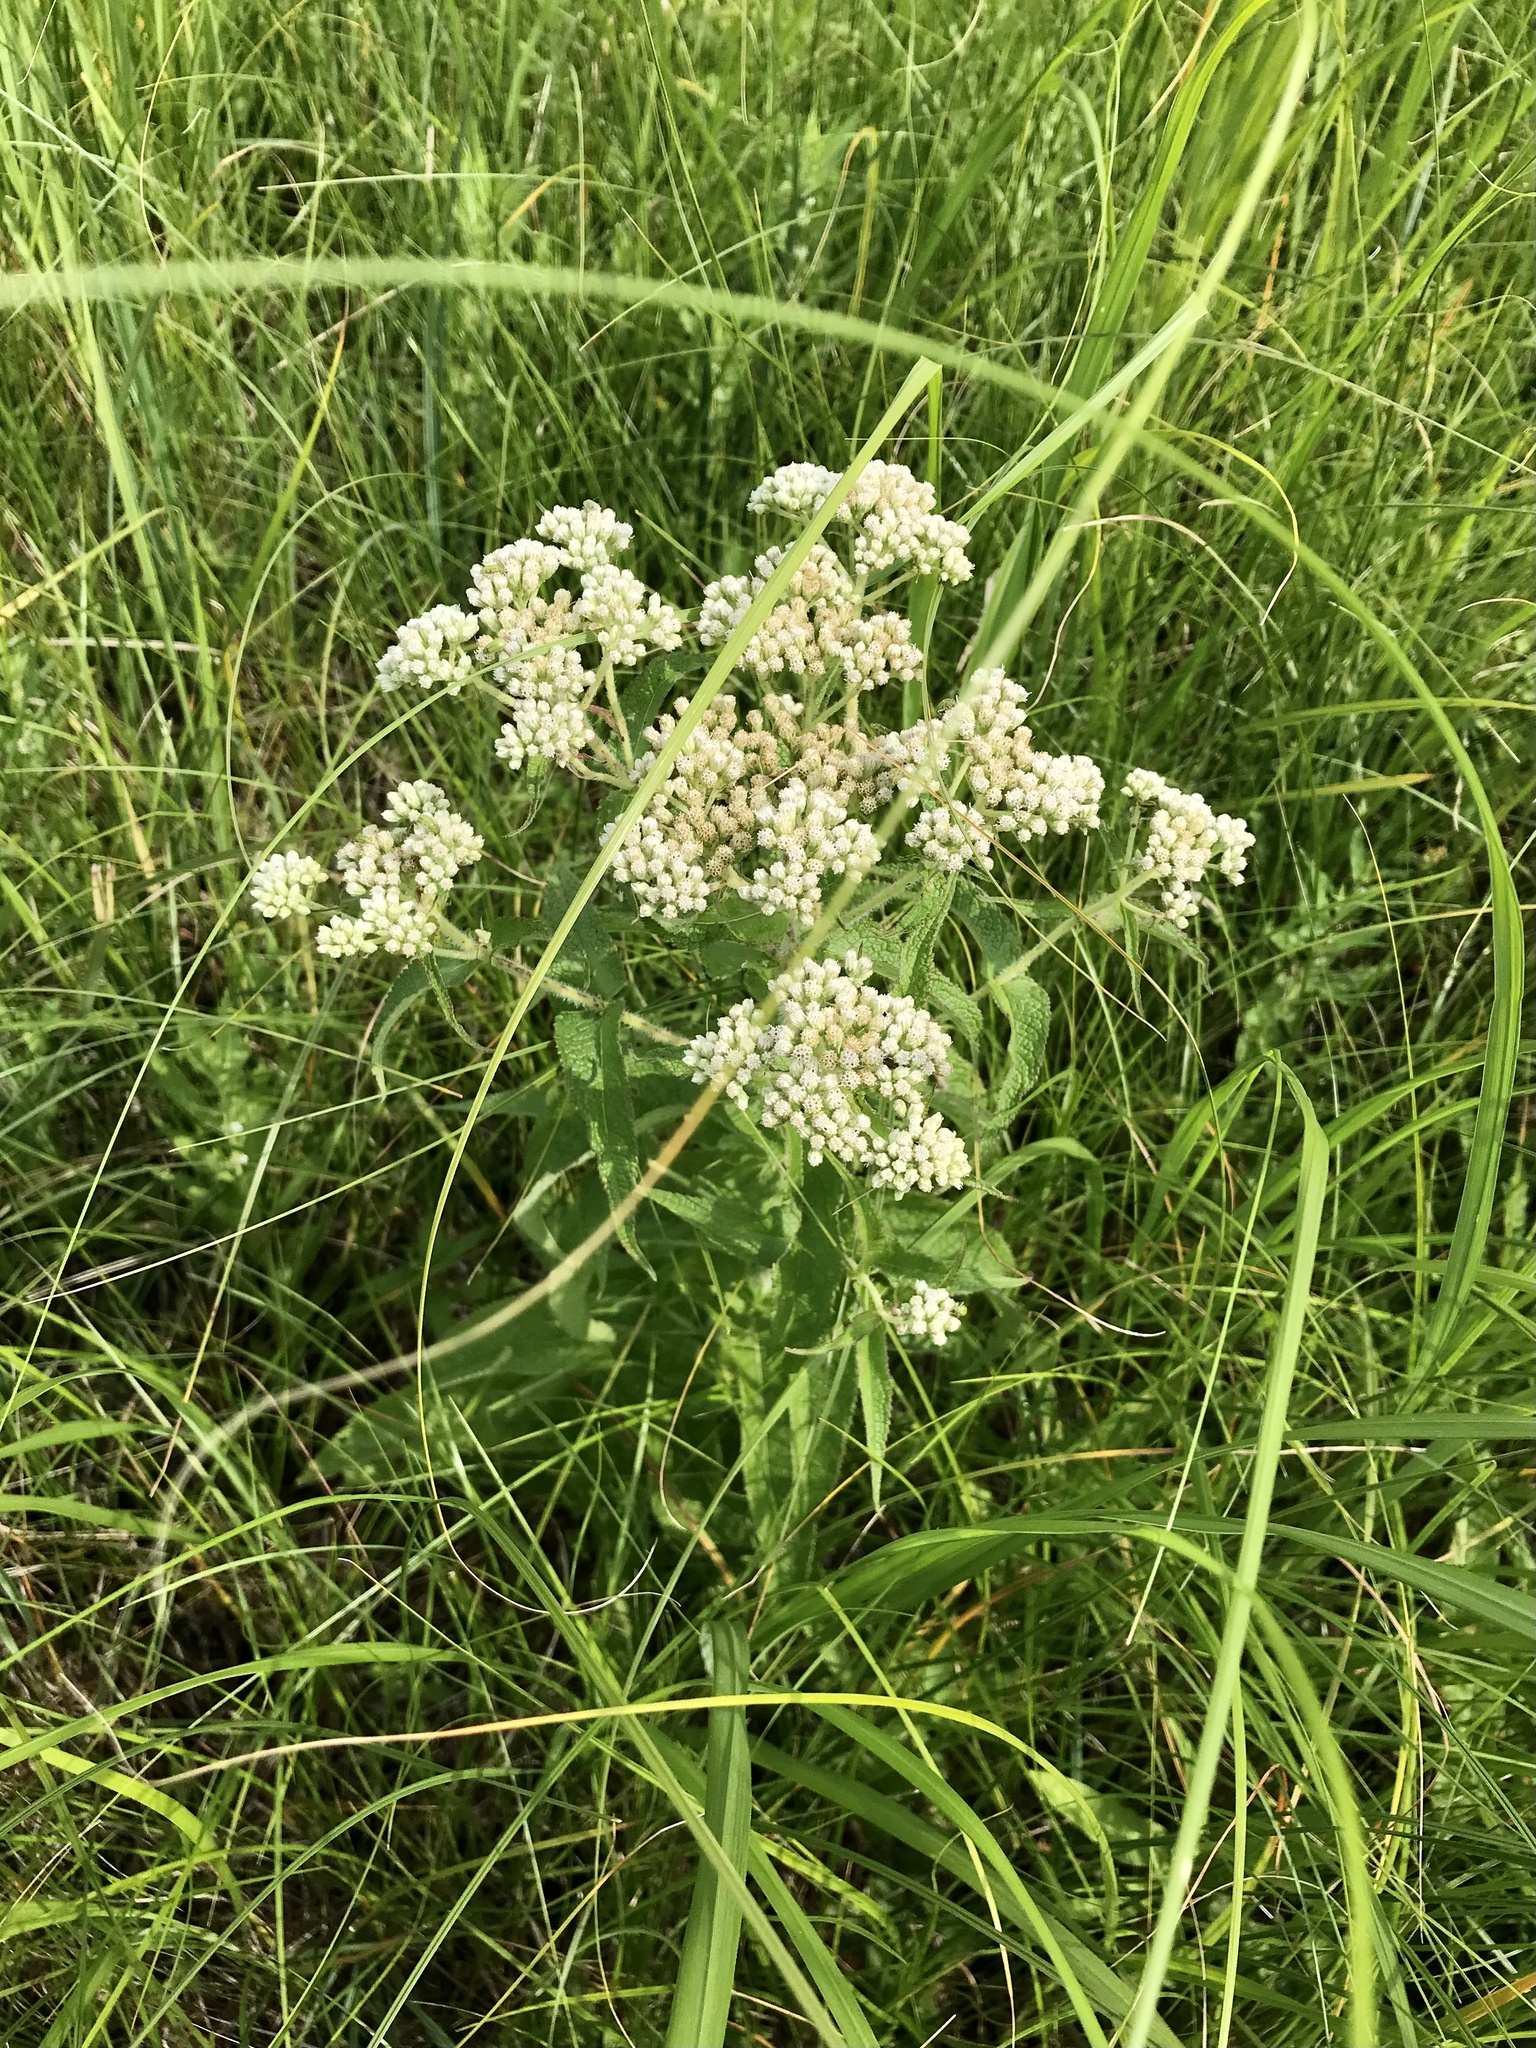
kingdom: Plantae
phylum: Tracheophyta
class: Magnoliopsida
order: Asterales
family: Asteraceae
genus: Eupatorium
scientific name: Eupatorium perfoliatum
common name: Boneset
